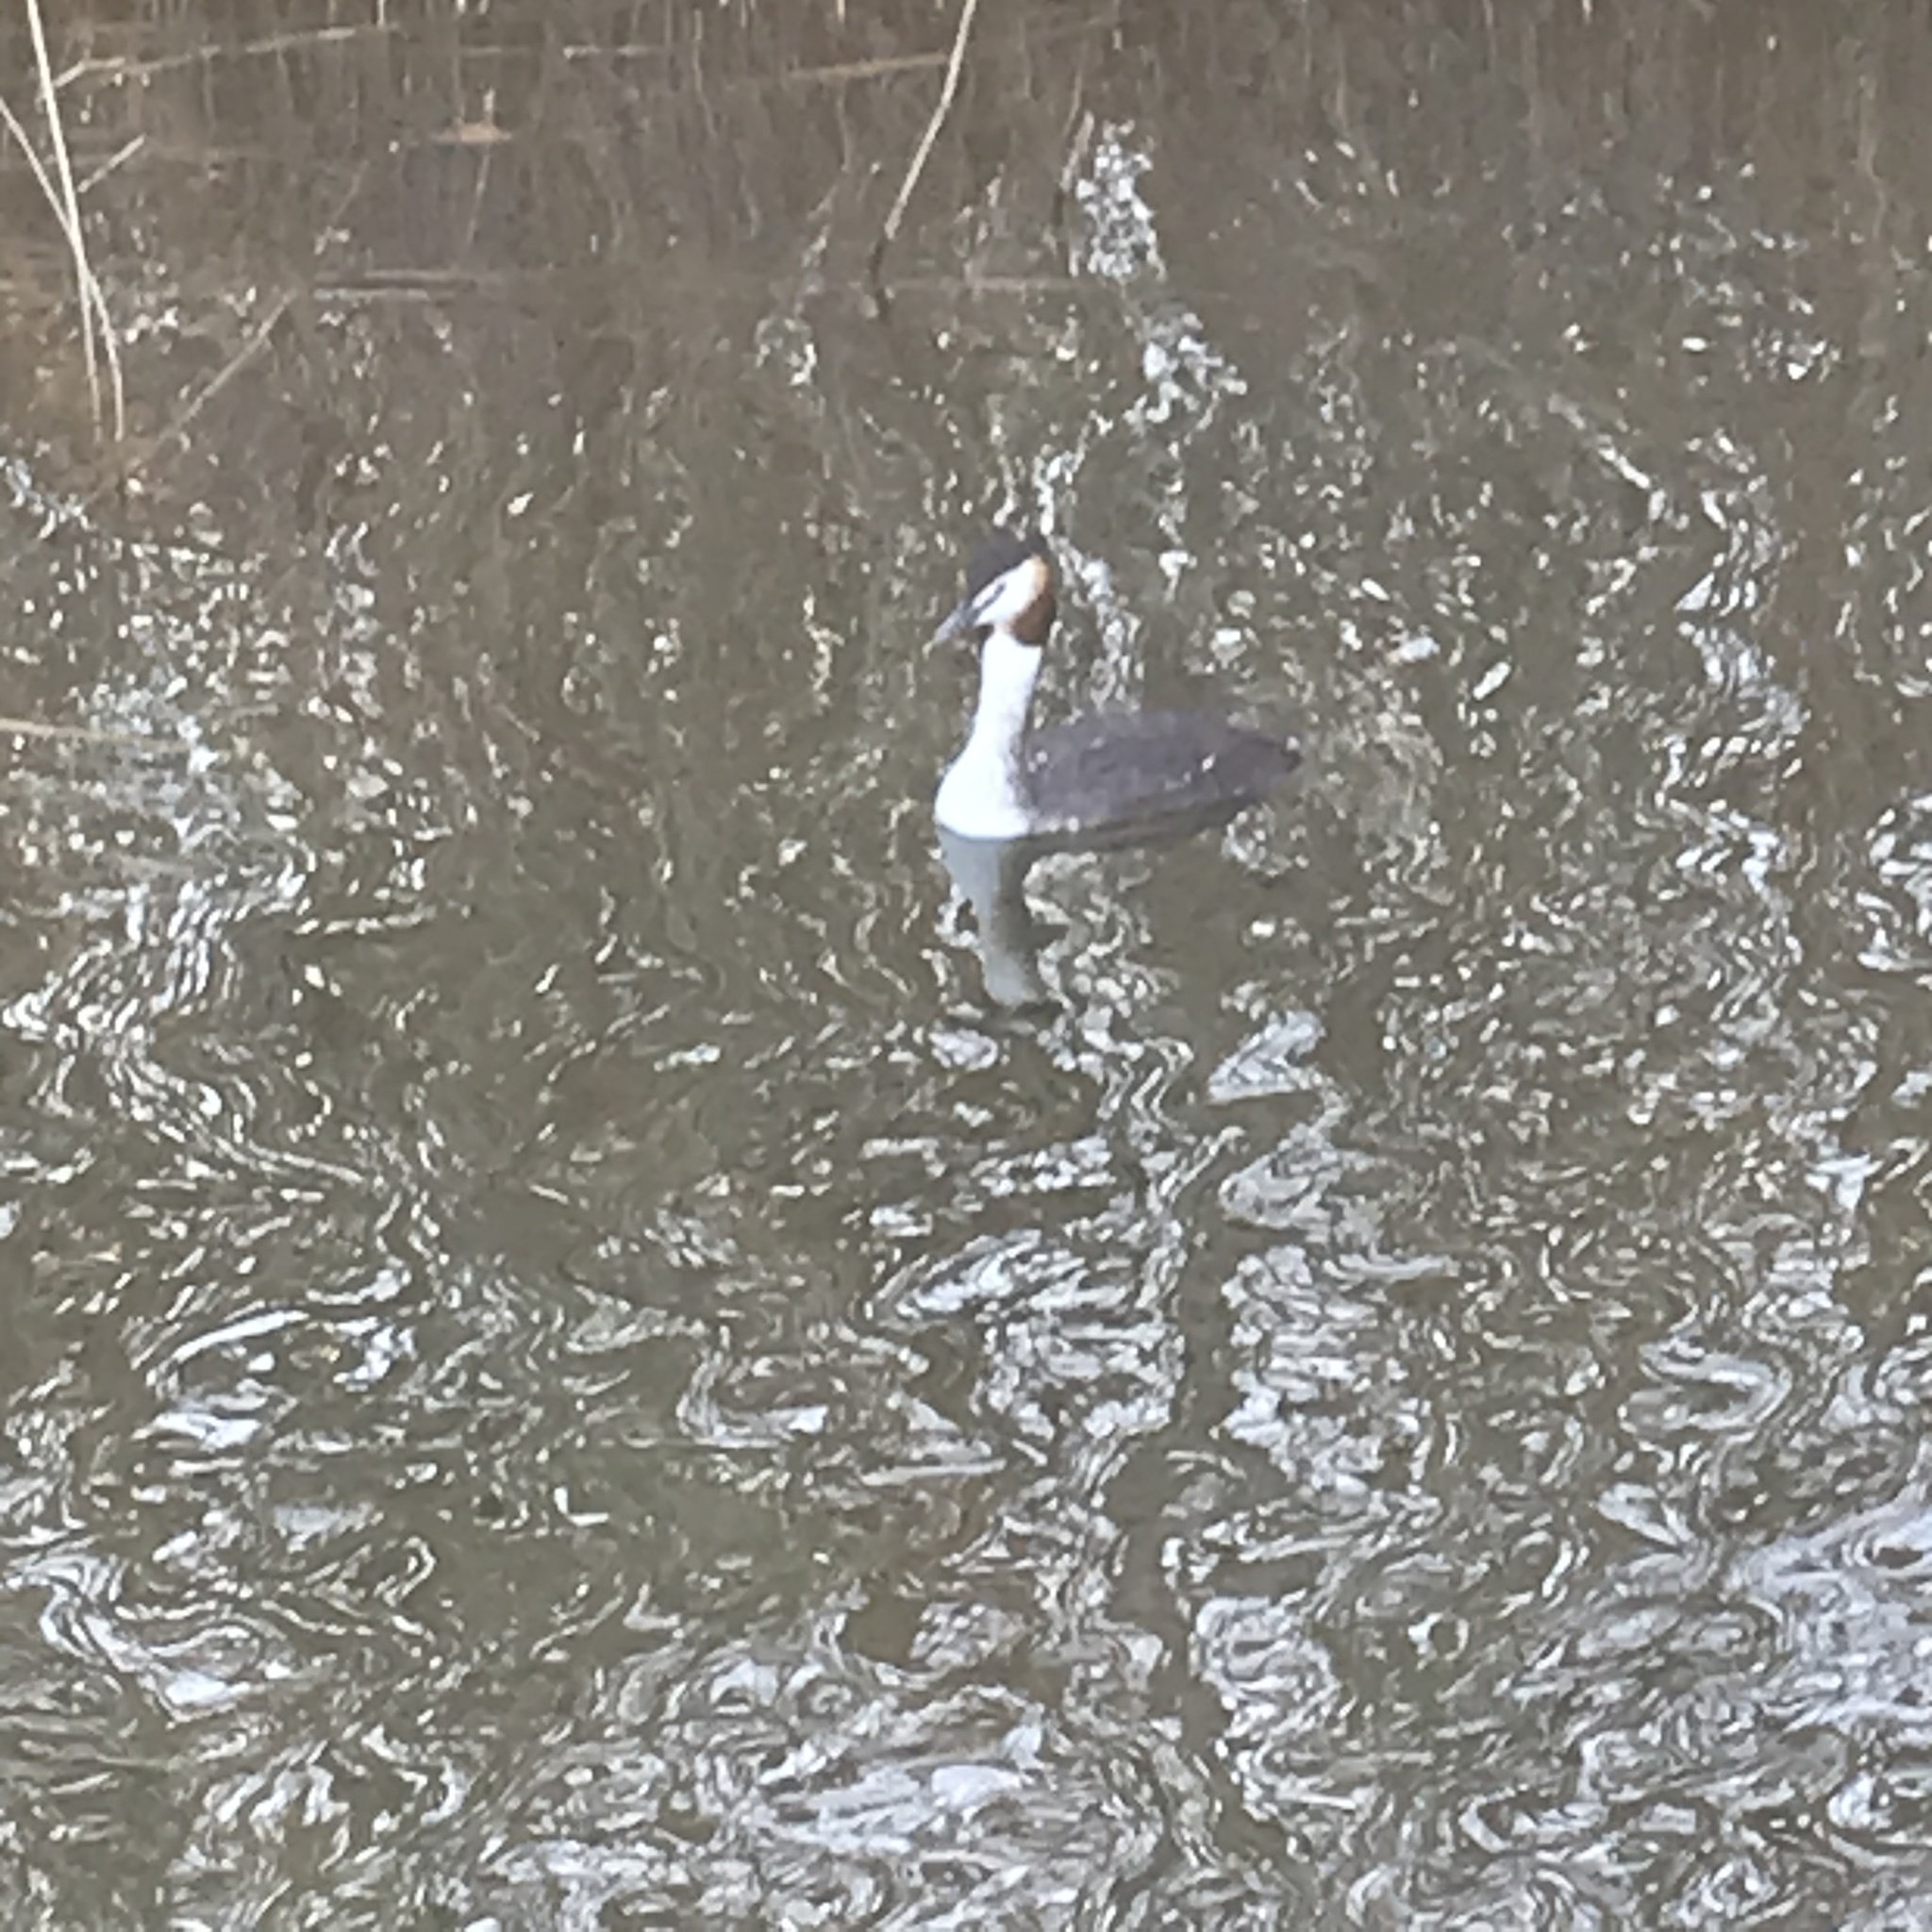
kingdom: Animalia
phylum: Chordata
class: Aves
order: Podicipediformes
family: Podicipedidae
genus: Podiceps
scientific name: Podiceps cristatus
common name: Great crested grebe
